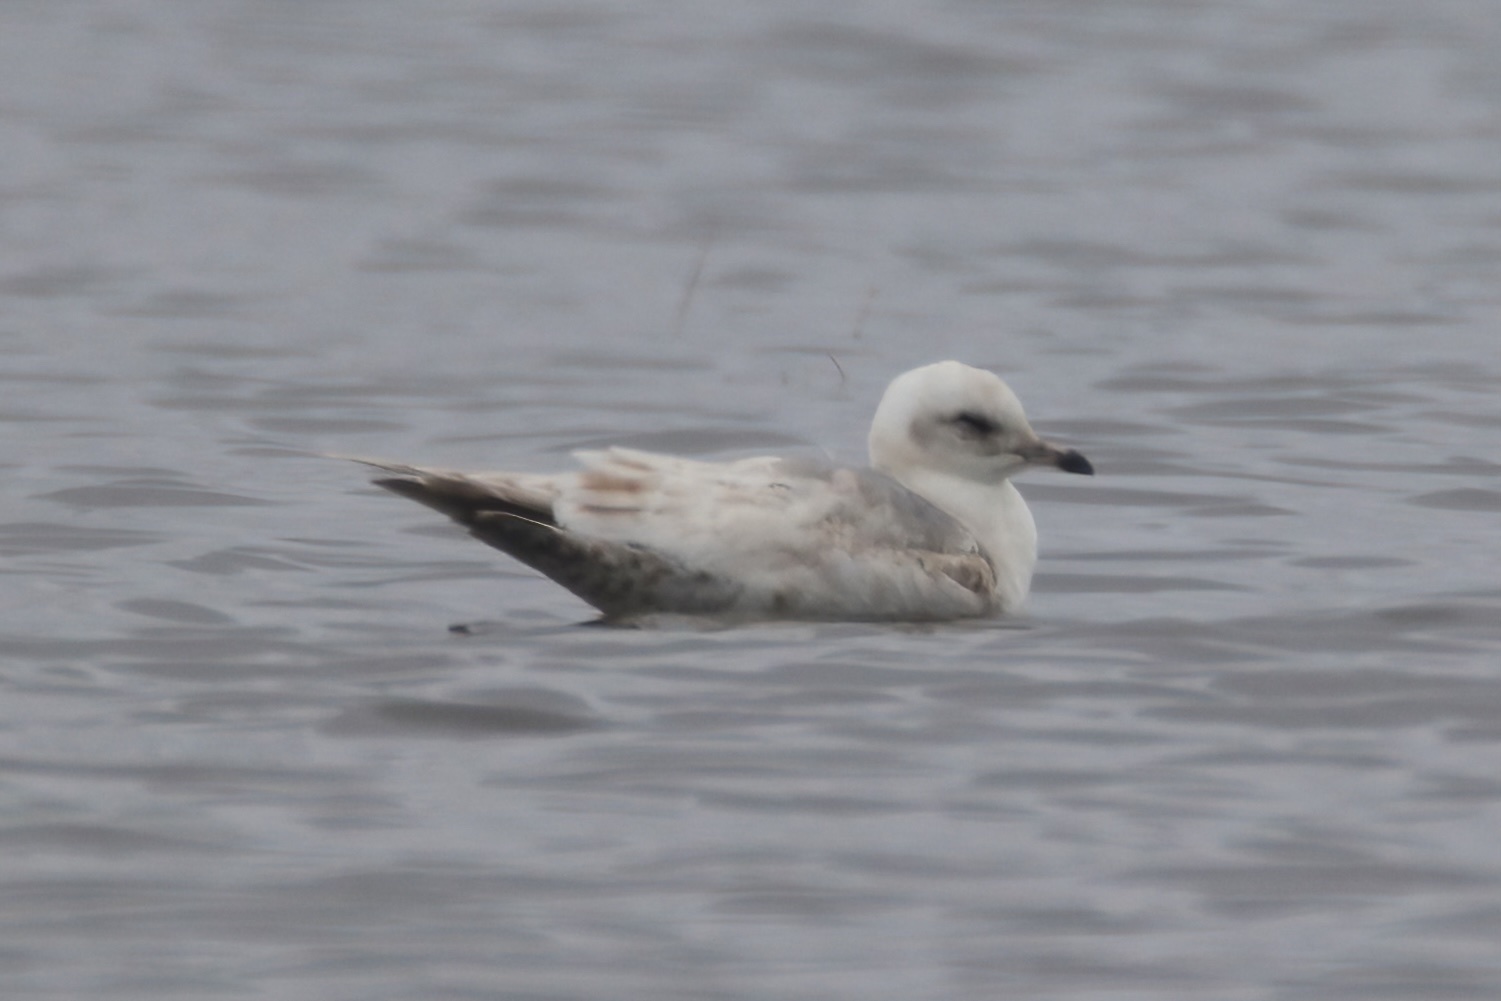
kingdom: Animalia
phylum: Chordata
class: Aves
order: Charadriiformes
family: Laridae
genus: Larus
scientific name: Larus glaucoides
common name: Iceland gull
